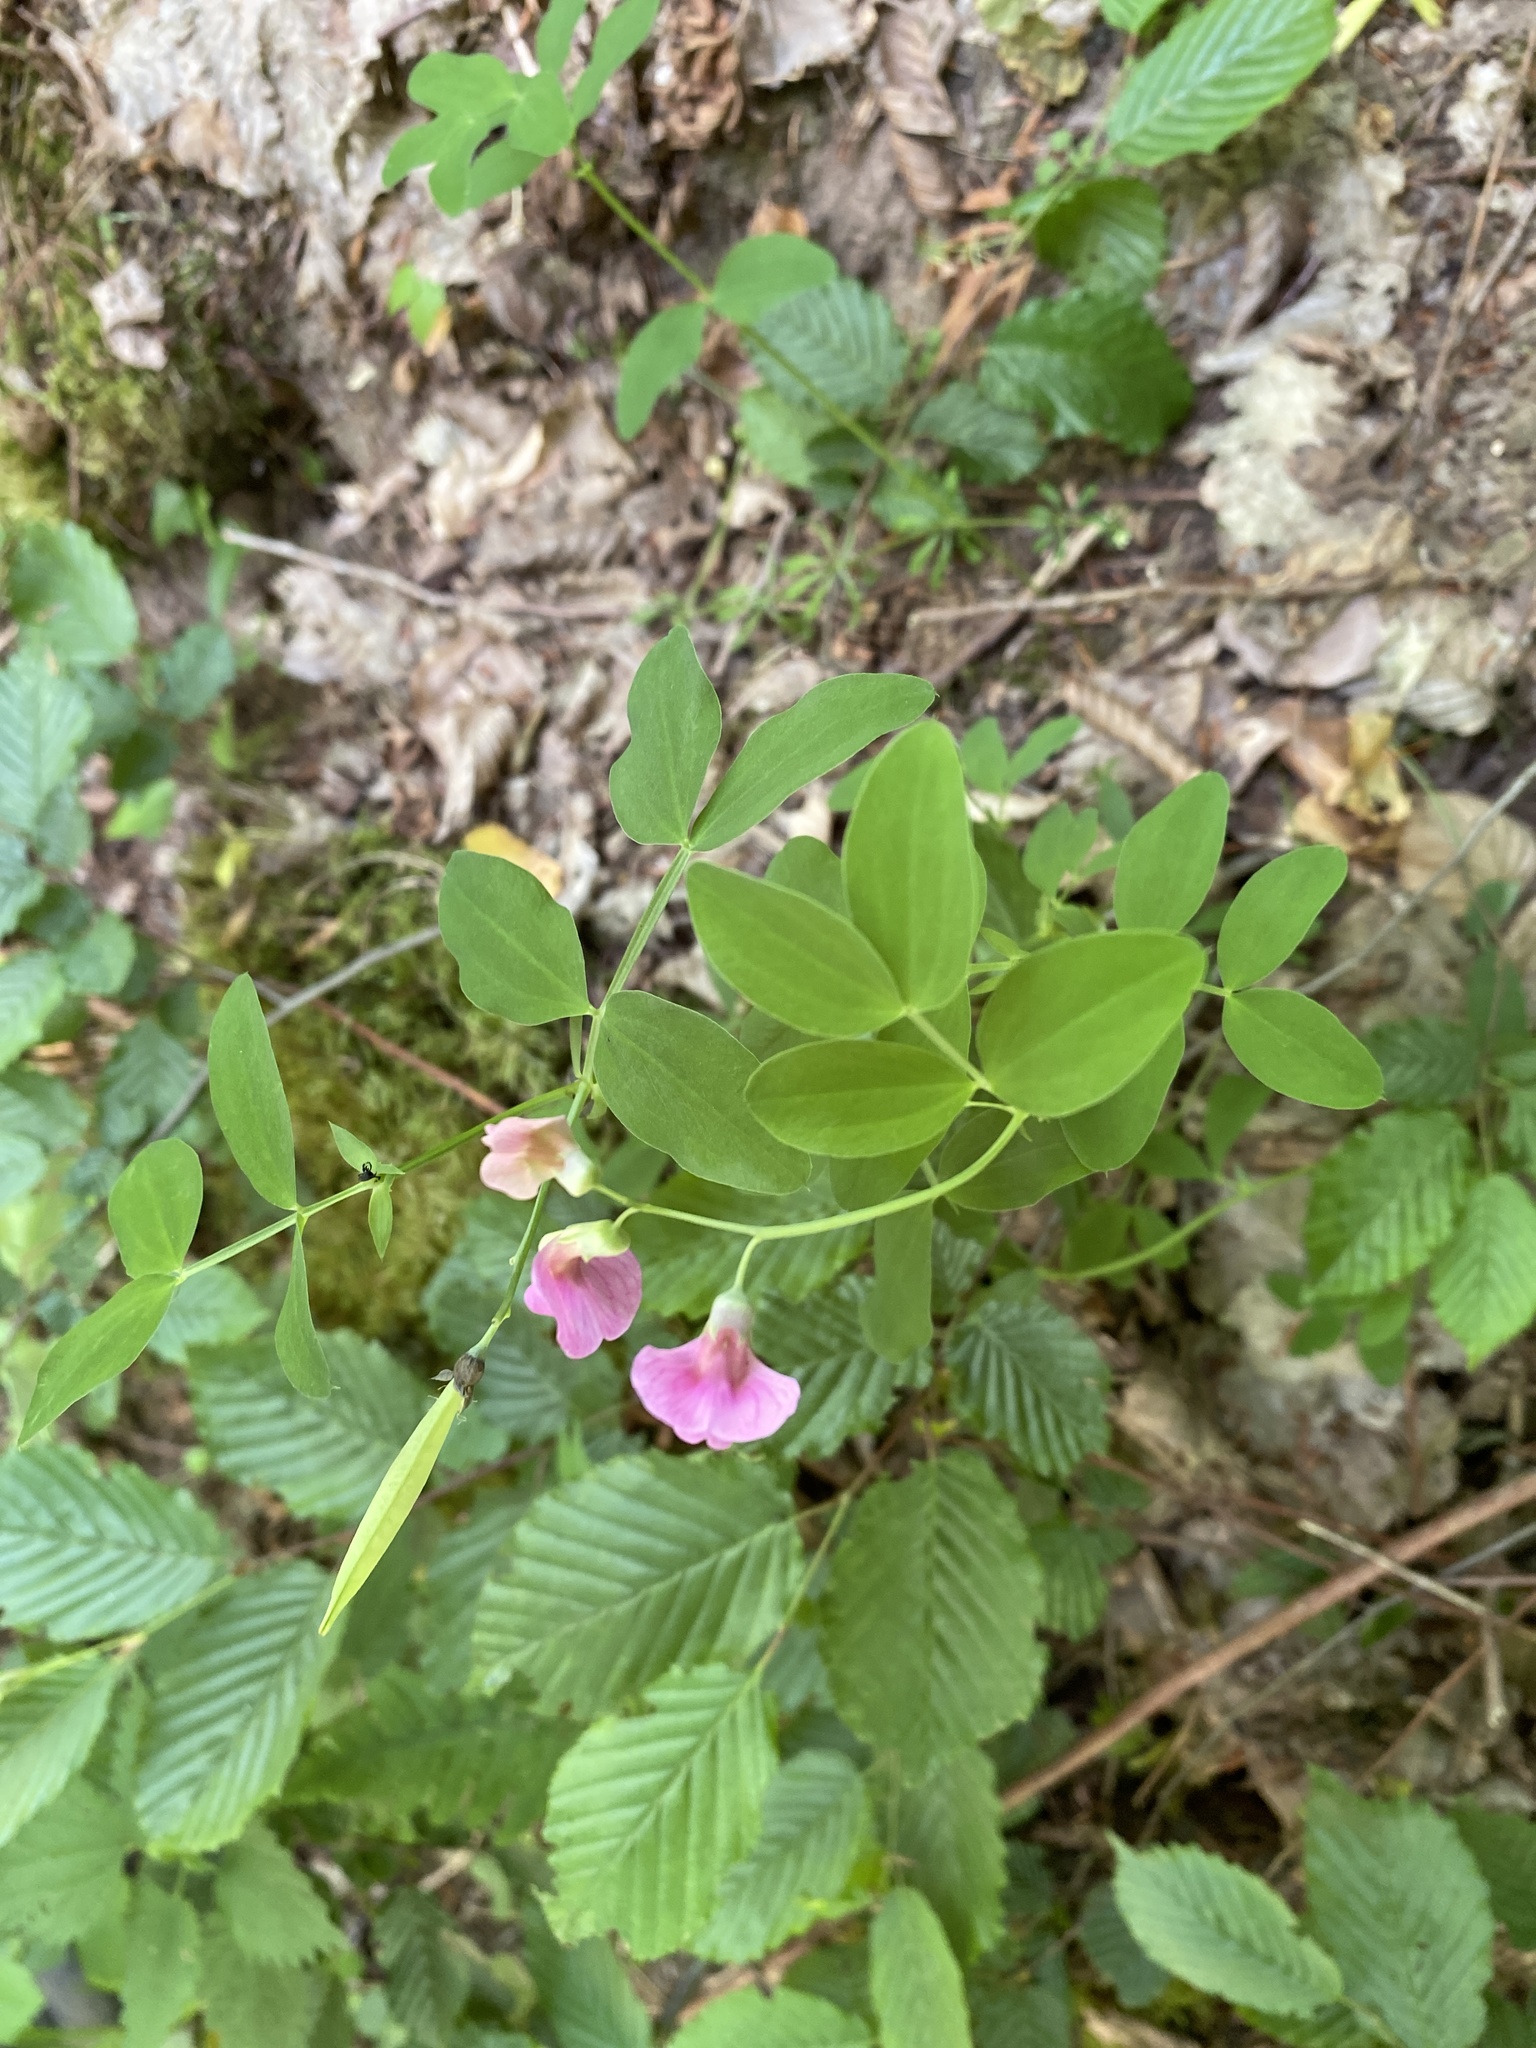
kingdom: Plantae
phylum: Tracheophyta
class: Magnoliopsida
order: Fabales
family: Fabaceae
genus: Lathyrus
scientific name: Lathyrus linifolius
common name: Bitter-vetch
